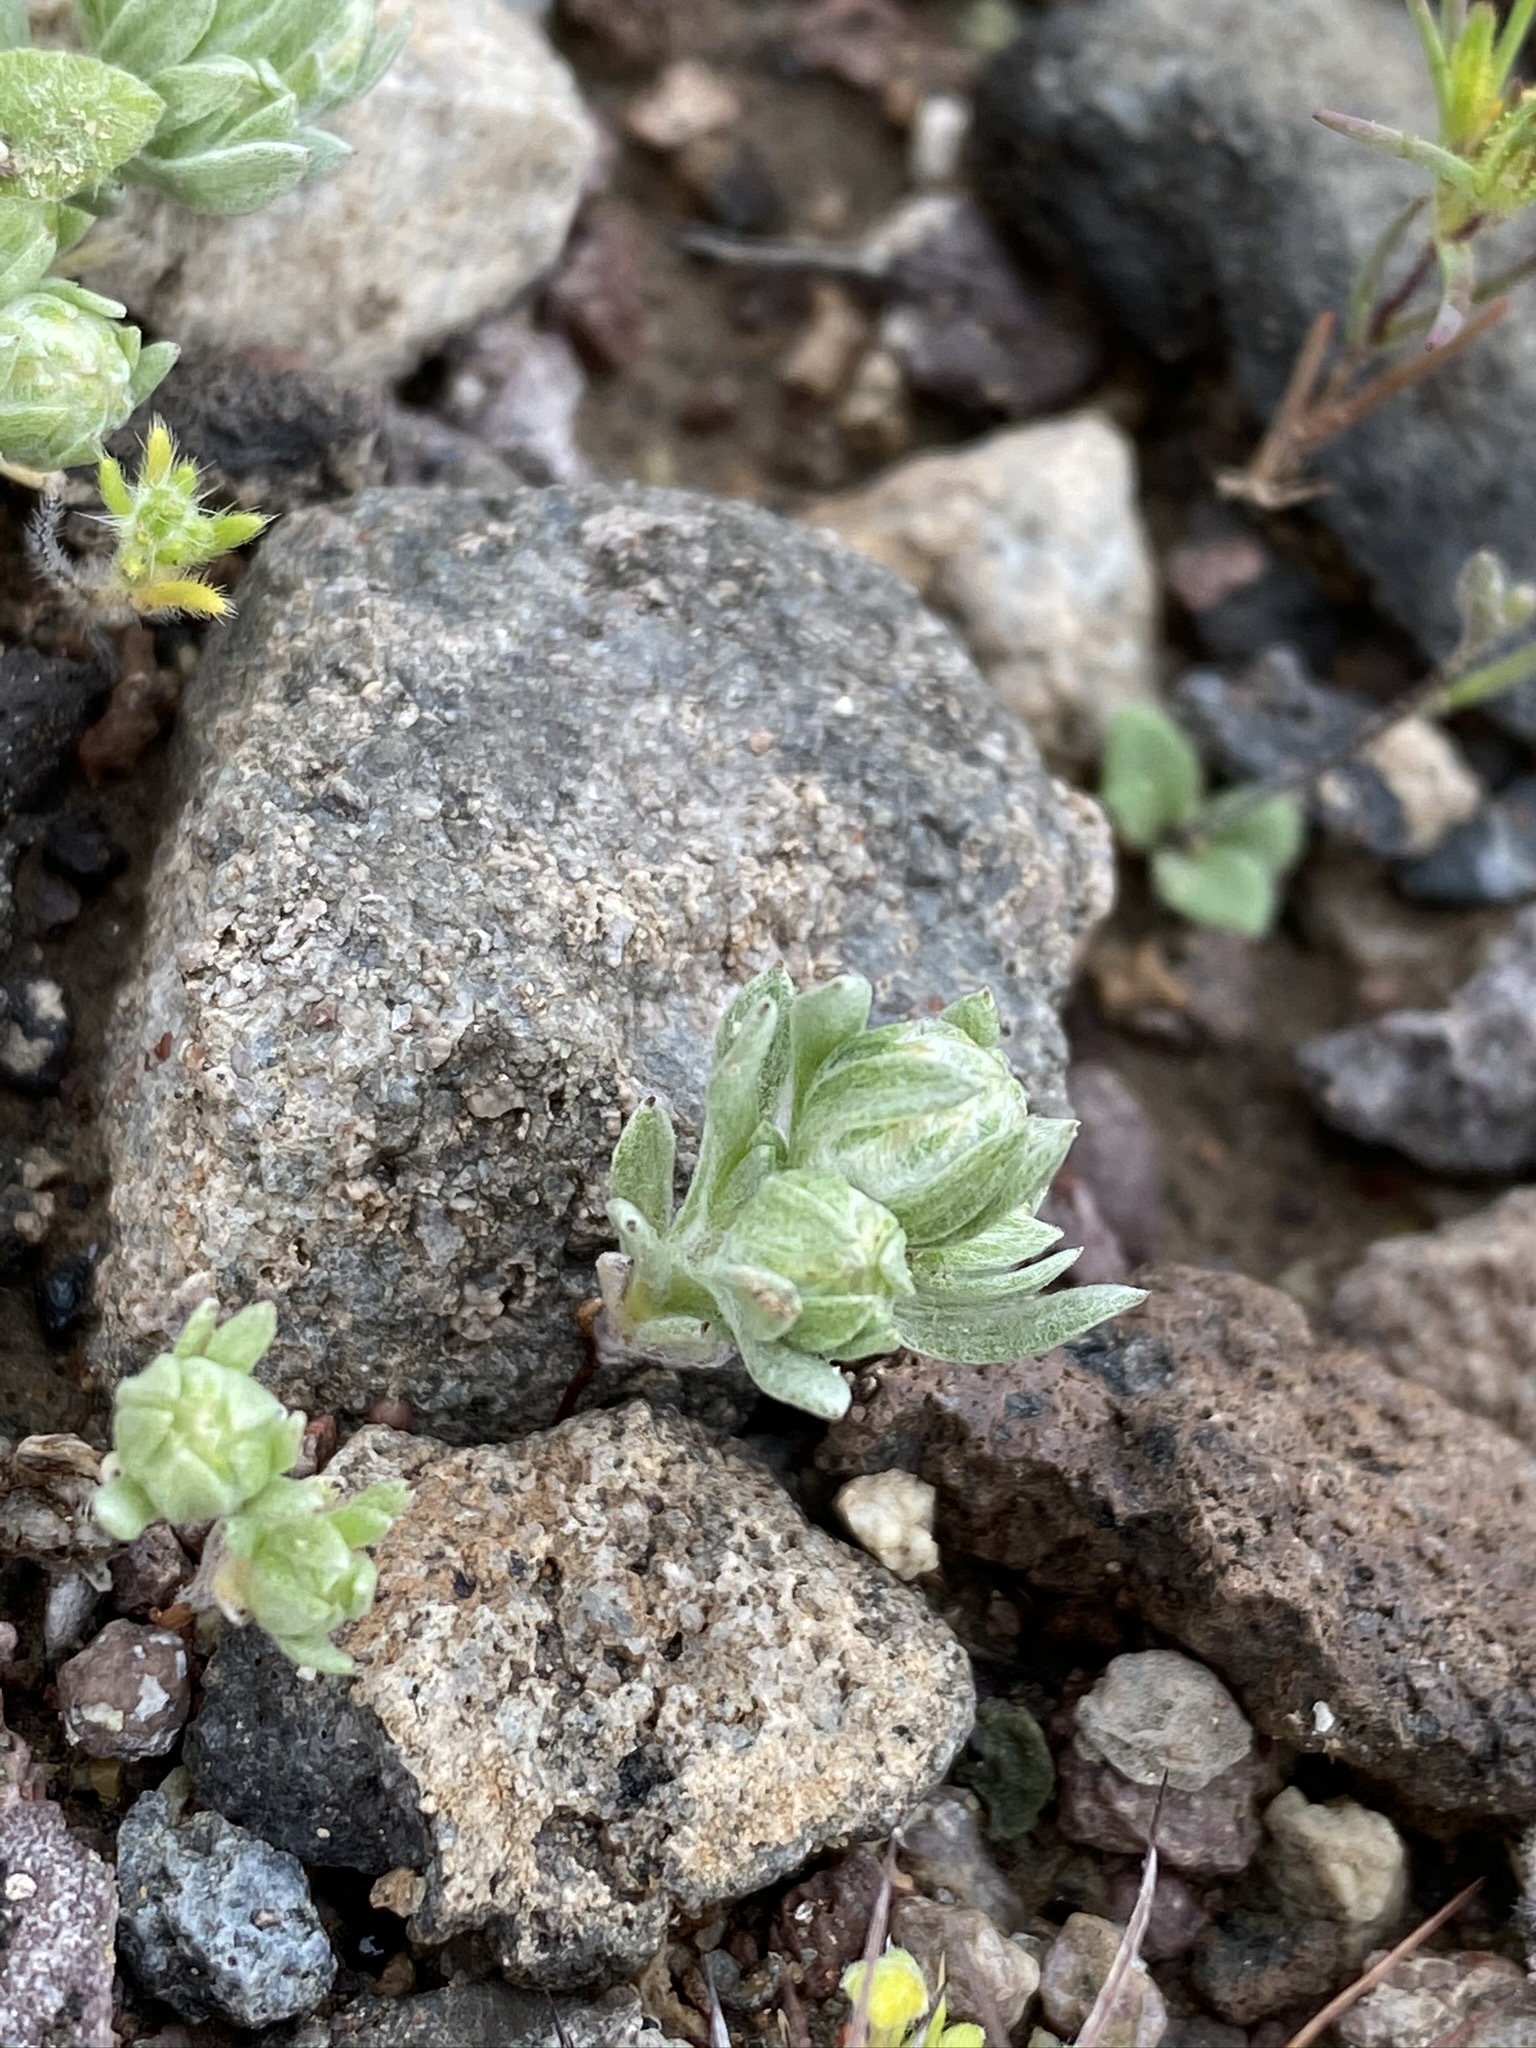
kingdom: Plantae
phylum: Tracheophyta
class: Magnoliopsida
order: Asterales
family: Asteraceae
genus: Stylocline
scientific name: Stylocline
